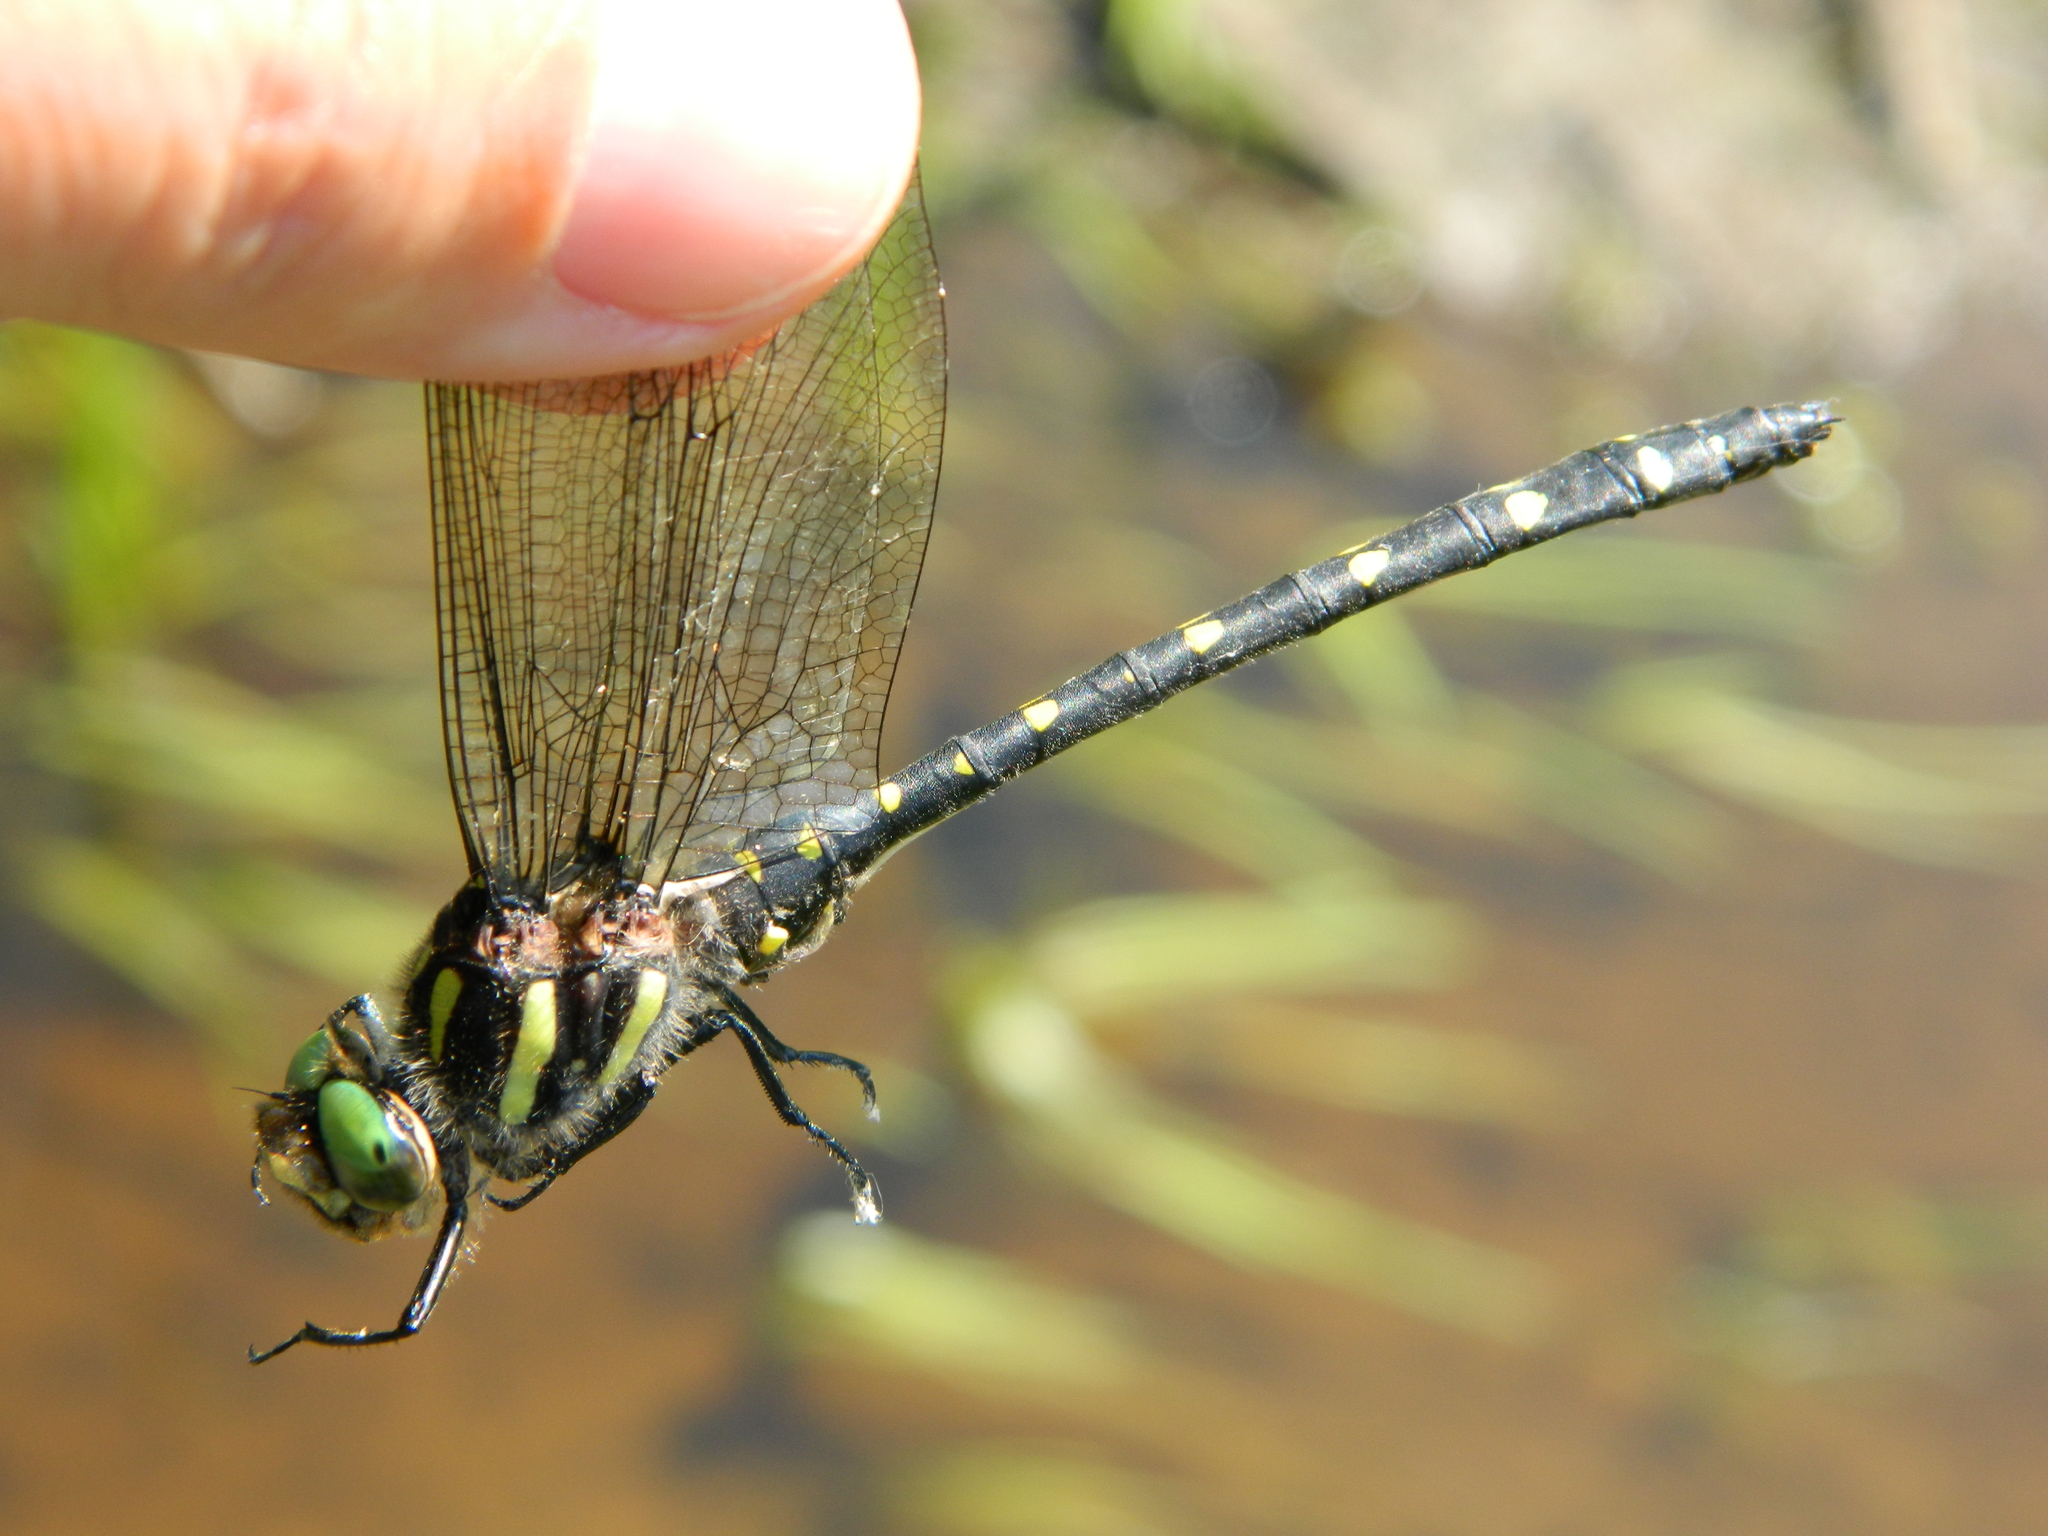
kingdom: Animalia
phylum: Arthropoda
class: Insecta
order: Odonata
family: Cordulegastridae
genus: Cordulegaster
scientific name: Cordulegaster maculata
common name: Twin-spotted spiketail
